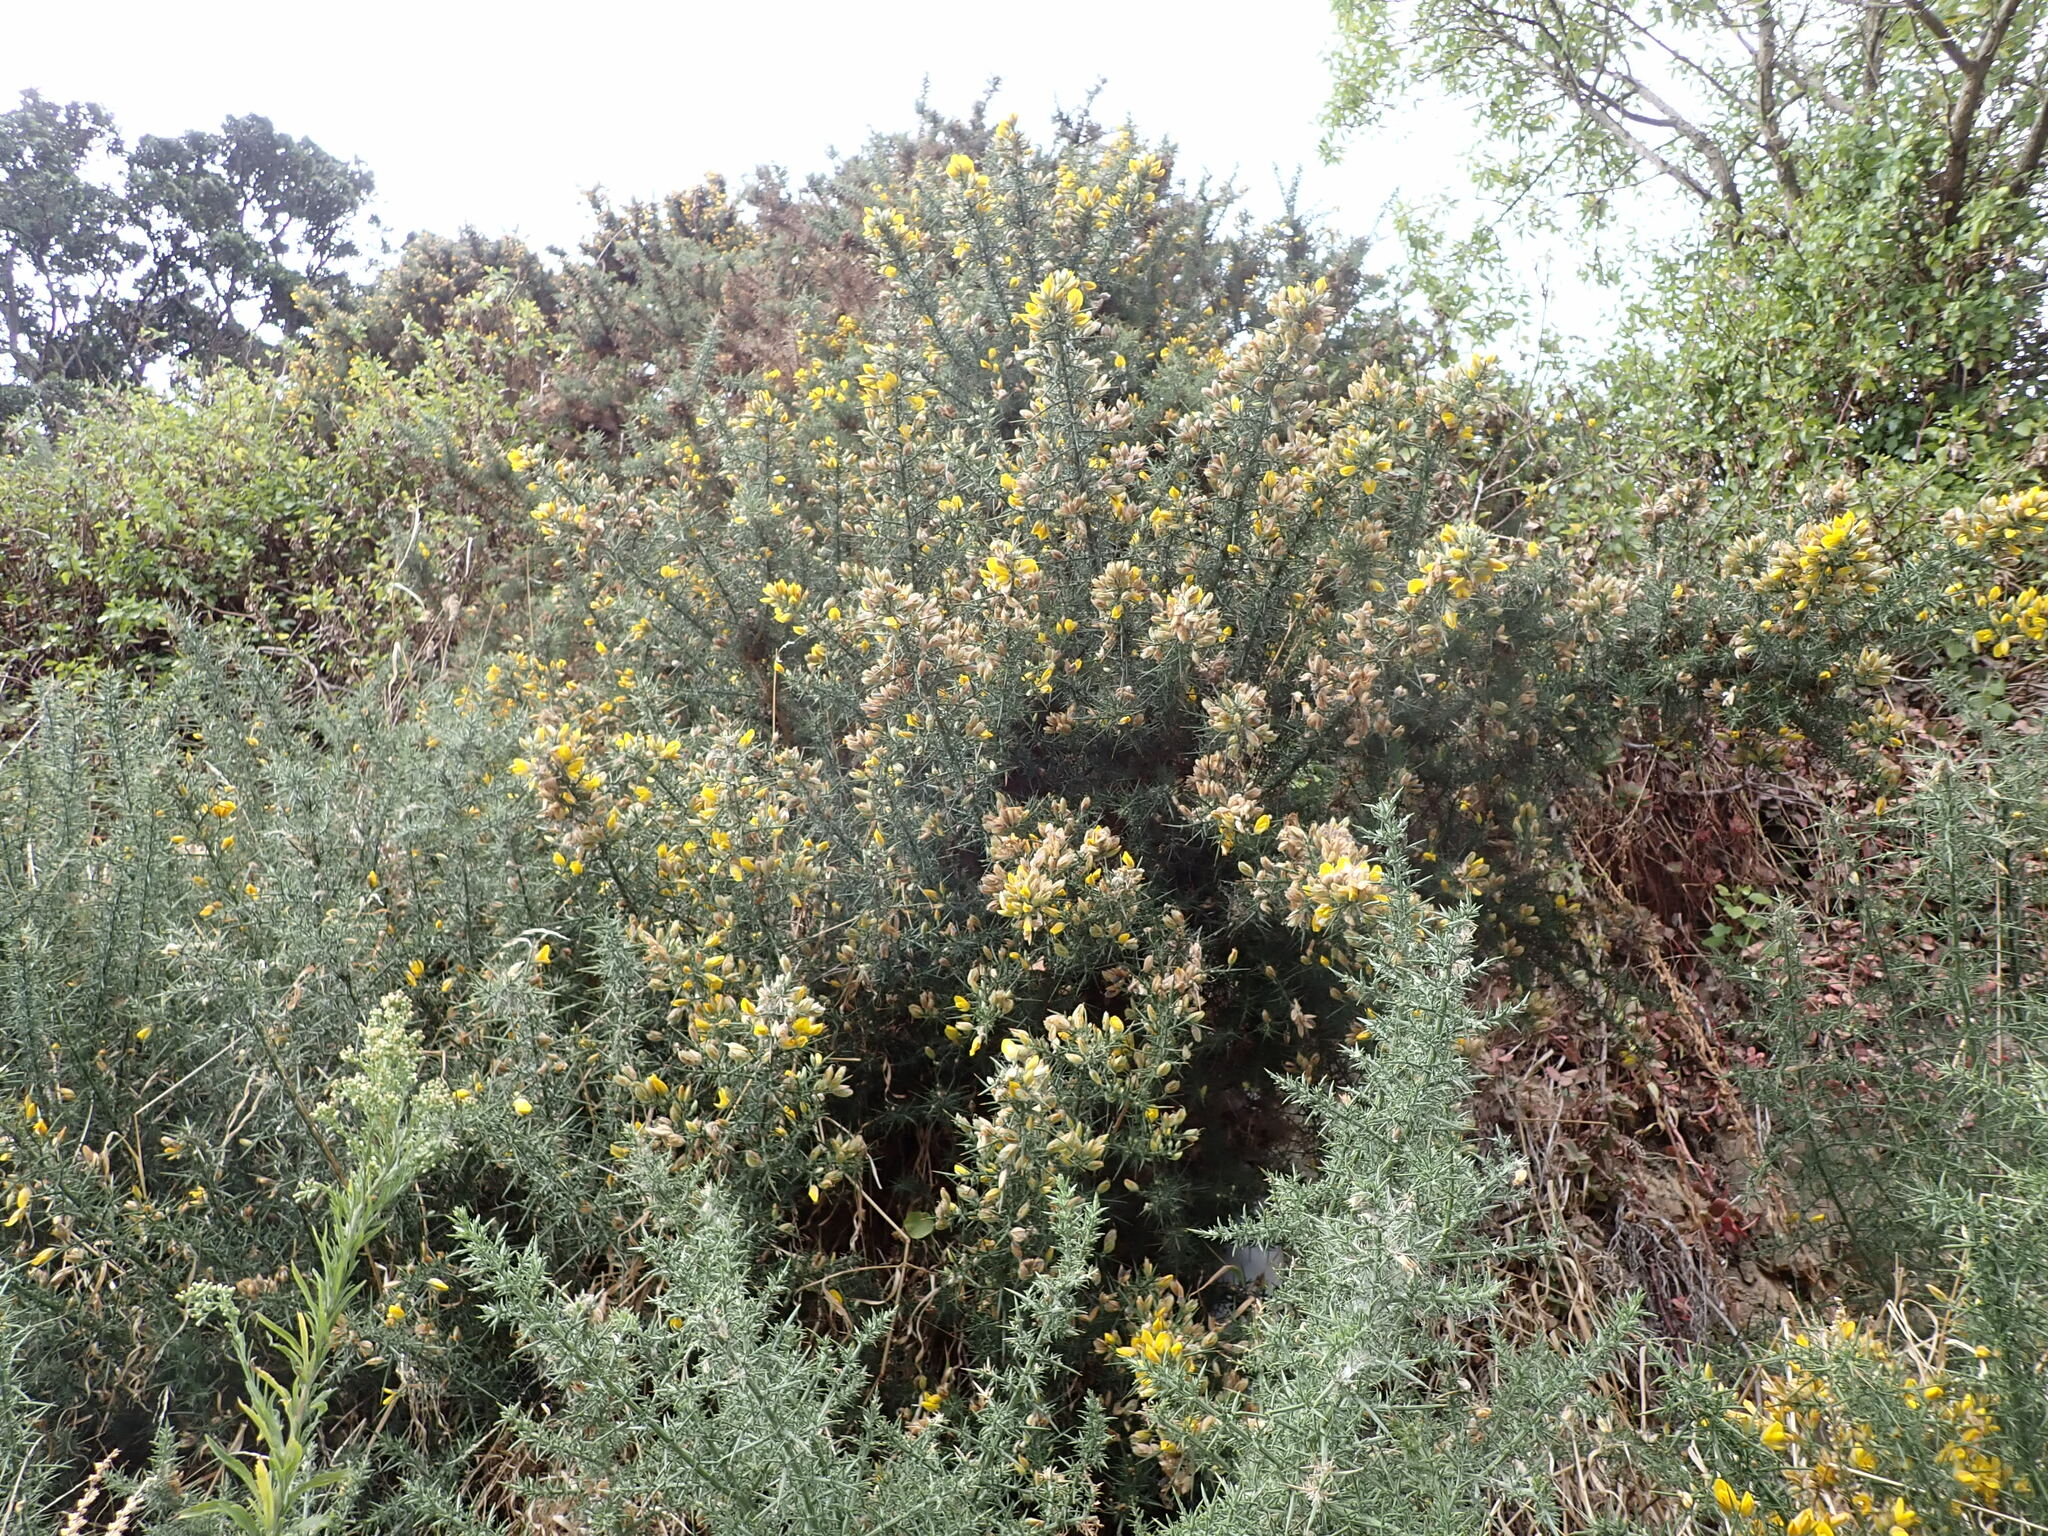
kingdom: Plantae
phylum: Tracheophyta
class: Magnoliopsida
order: Fabales
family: Fabaceae
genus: Ulex
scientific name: Ulex europaeus
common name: Common gorse
